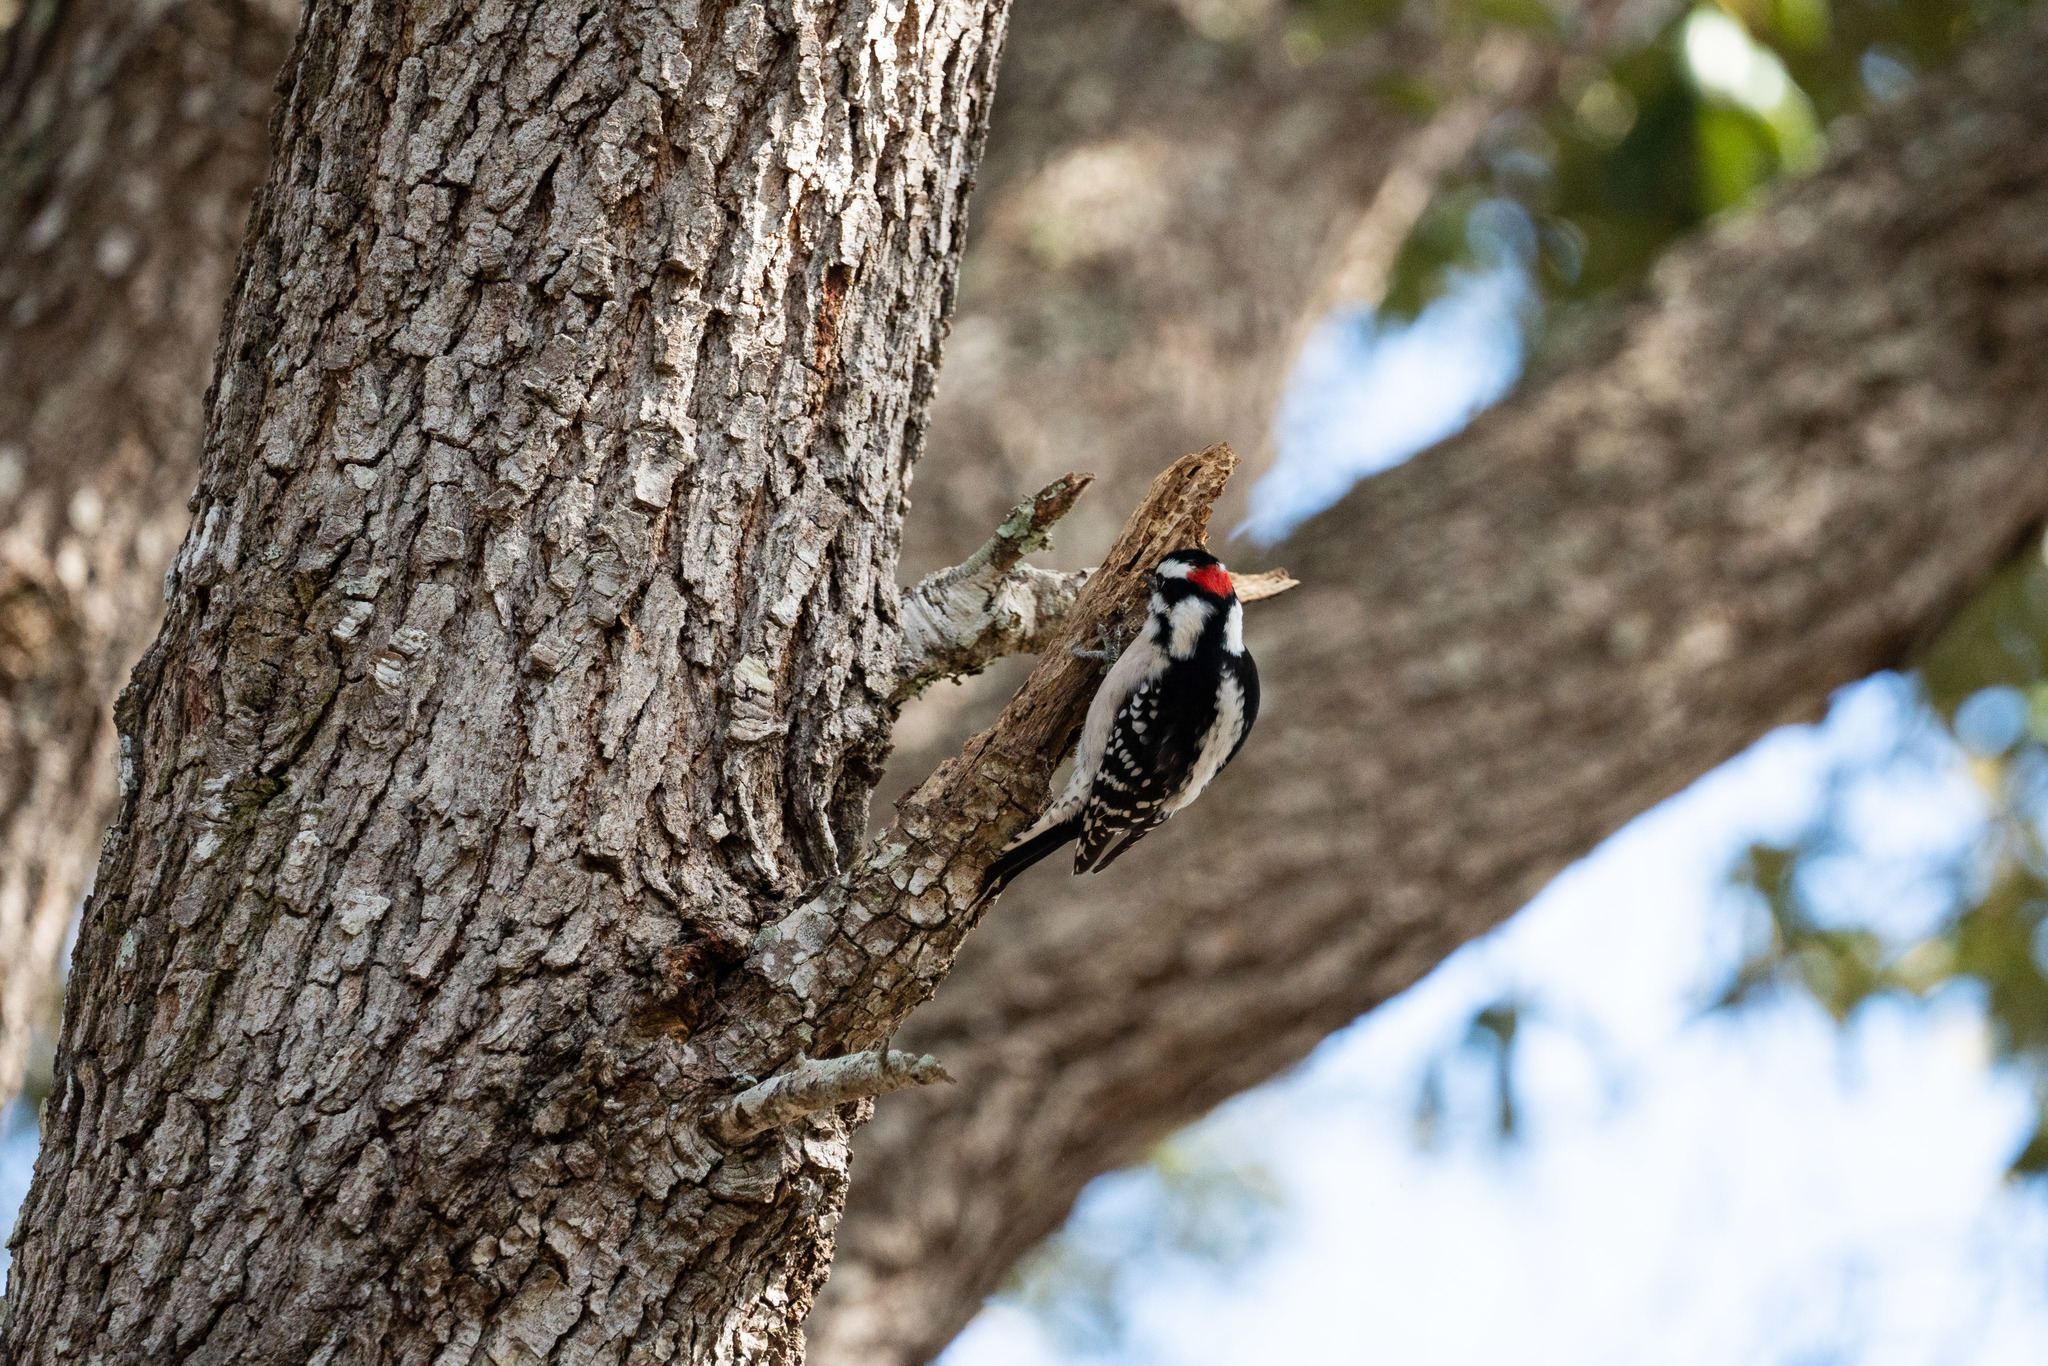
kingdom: Animalia
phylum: Chordata
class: Aves
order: Piciformes
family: Picidae
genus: Dryobates
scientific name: Dryobates pubescens
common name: Downy woodpecker
